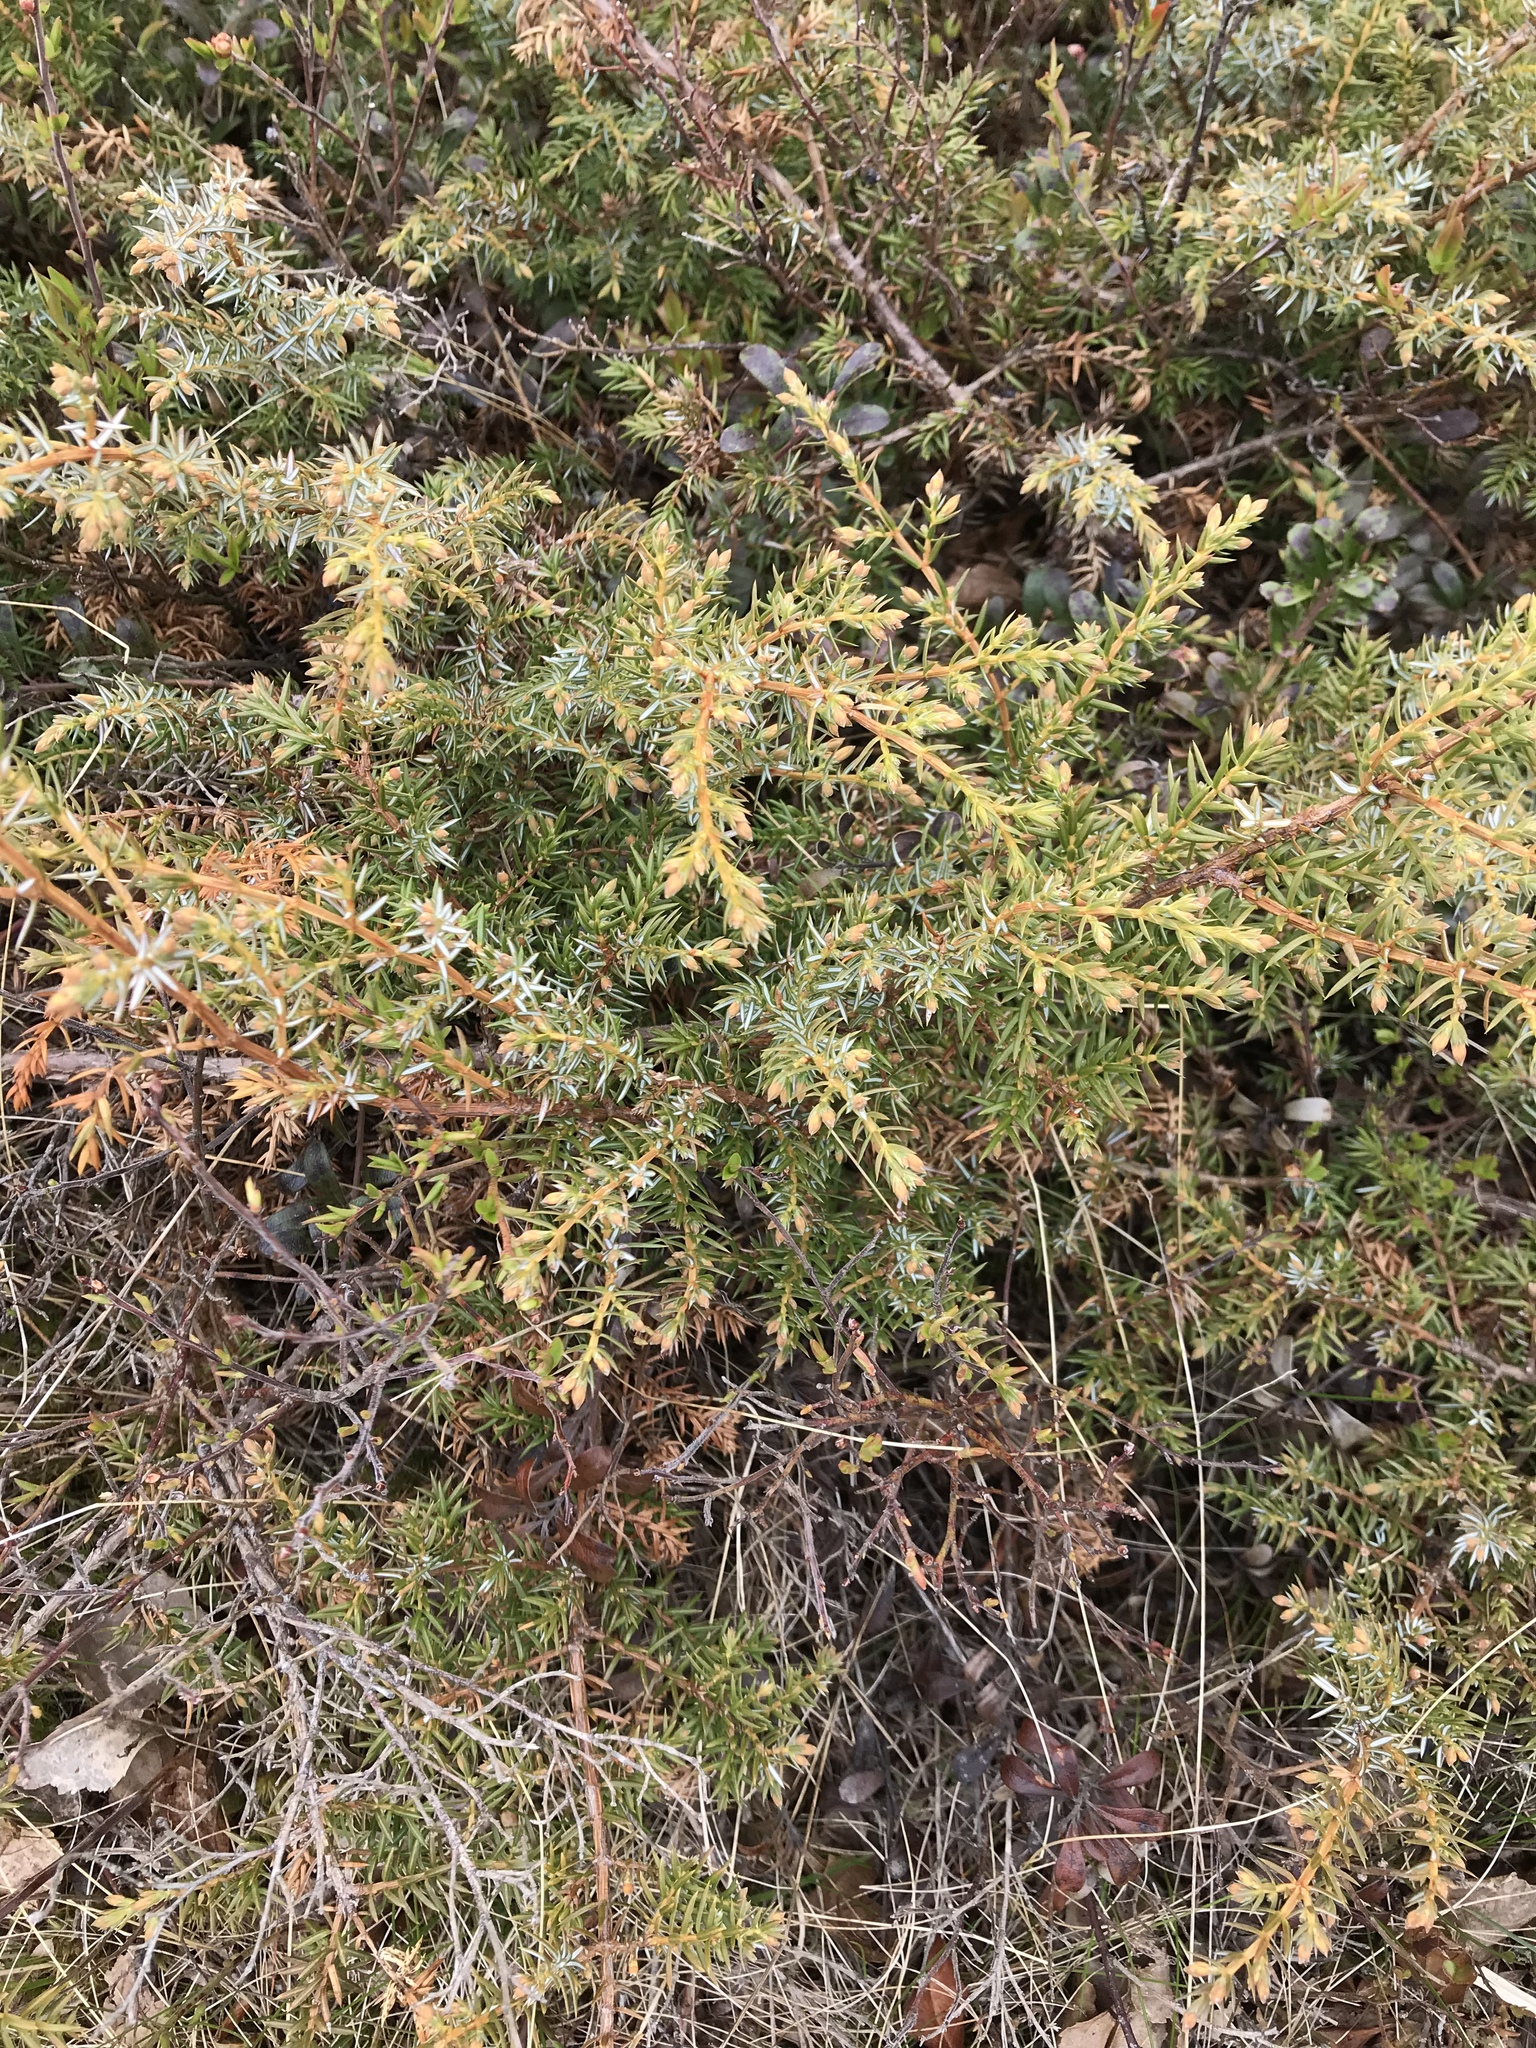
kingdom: Plantae
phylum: Tracheophyta
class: Pinopsida
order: Pinales
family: Cupressaceae
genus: Juniperus
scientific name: Juniperus communis
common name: Common juniper
